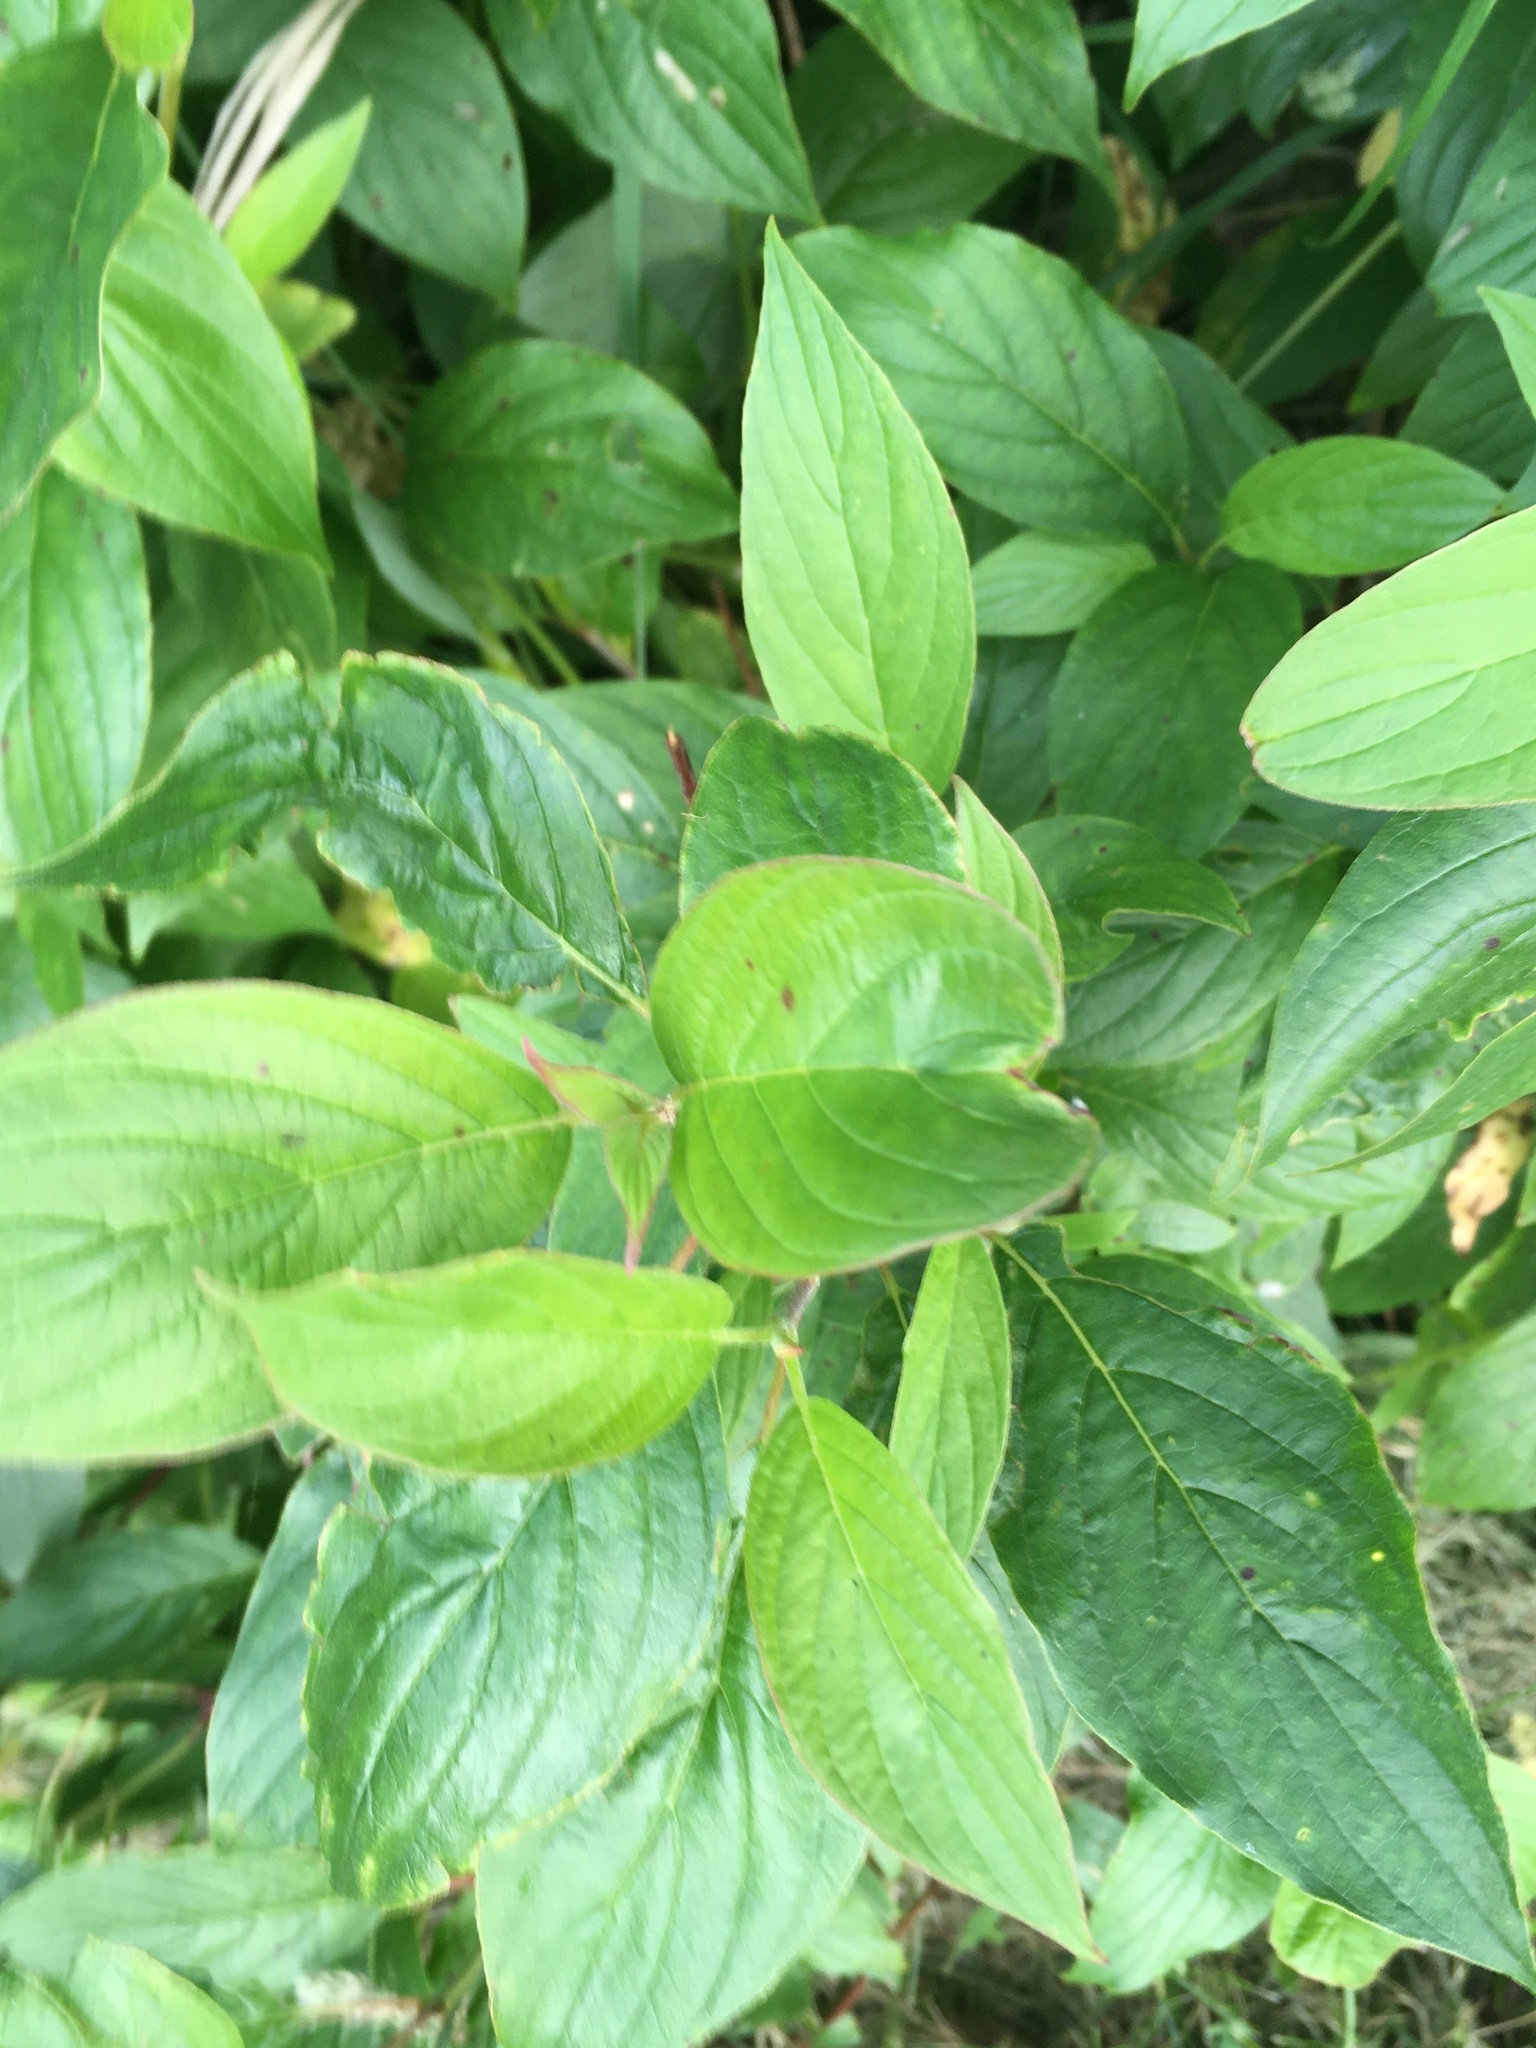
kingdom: Plantae
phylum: Tracheophyta
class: Magnoliopsida
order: Cornales
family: Cornaceae
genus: Cornus
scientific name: Cornus sericea
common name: Red-osier dogwood
